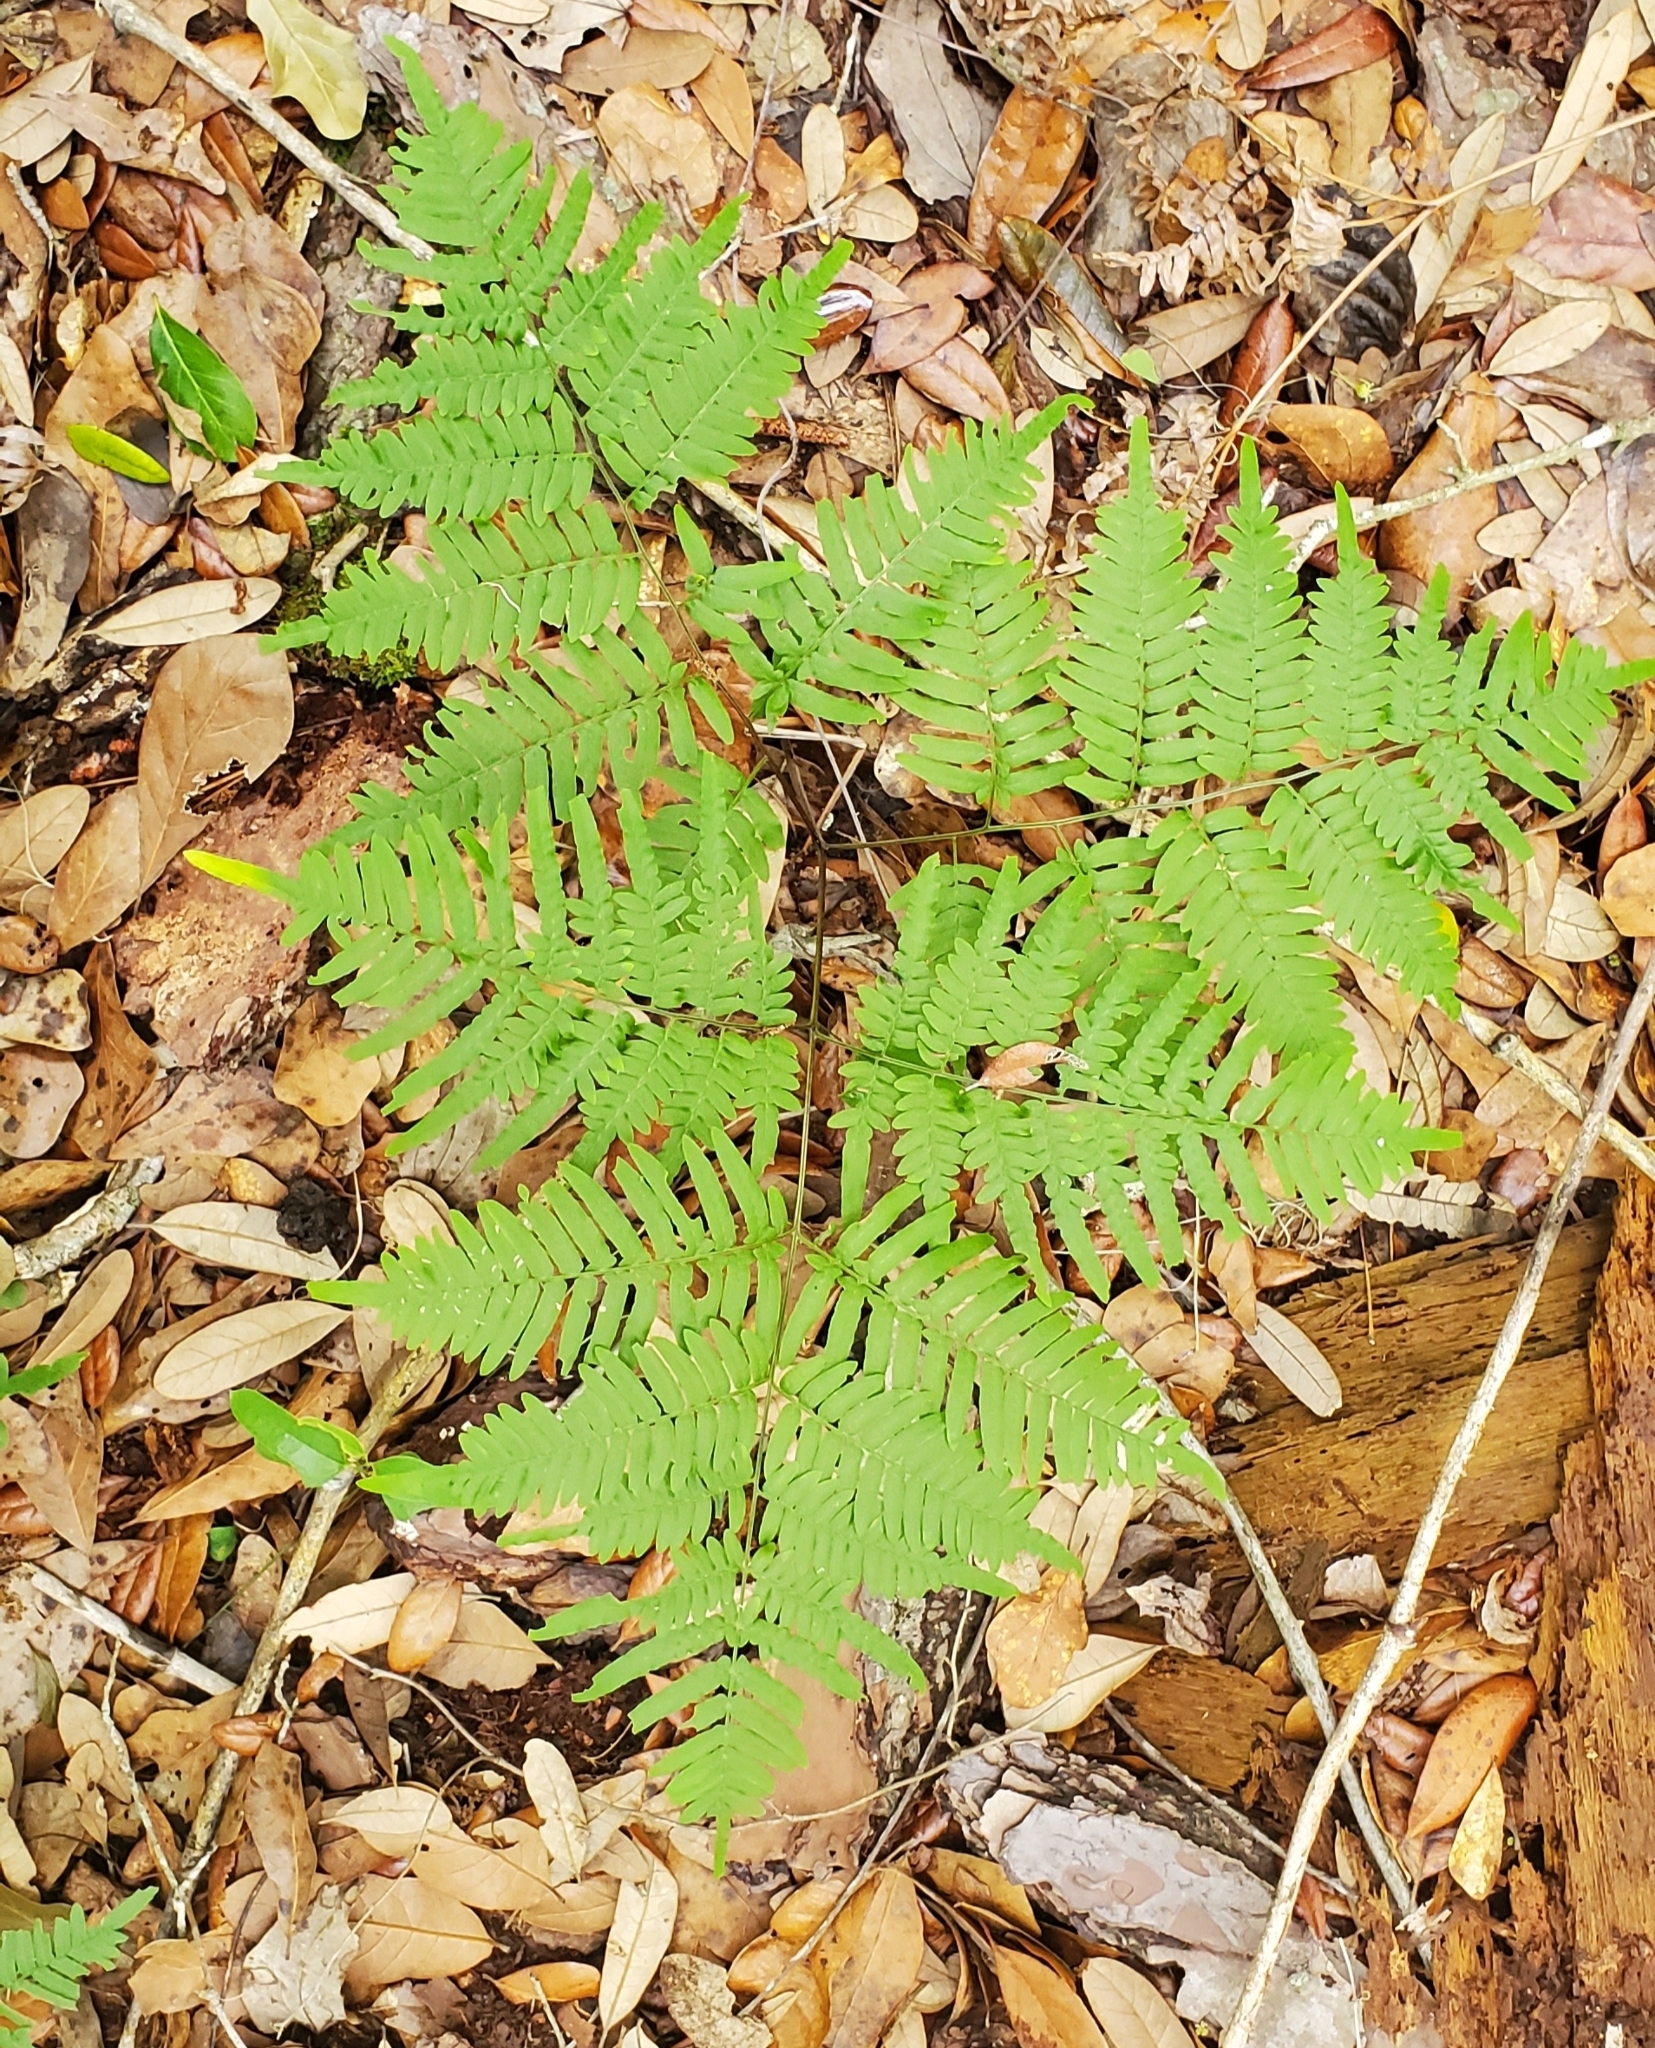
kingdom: Plantae
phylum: Tracheophyta
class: Polypodiopsida
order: Polypodiales
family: Dennstaedtiaceae
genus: Pteridium
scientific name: Pteridium aquilinum
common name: Bracken
